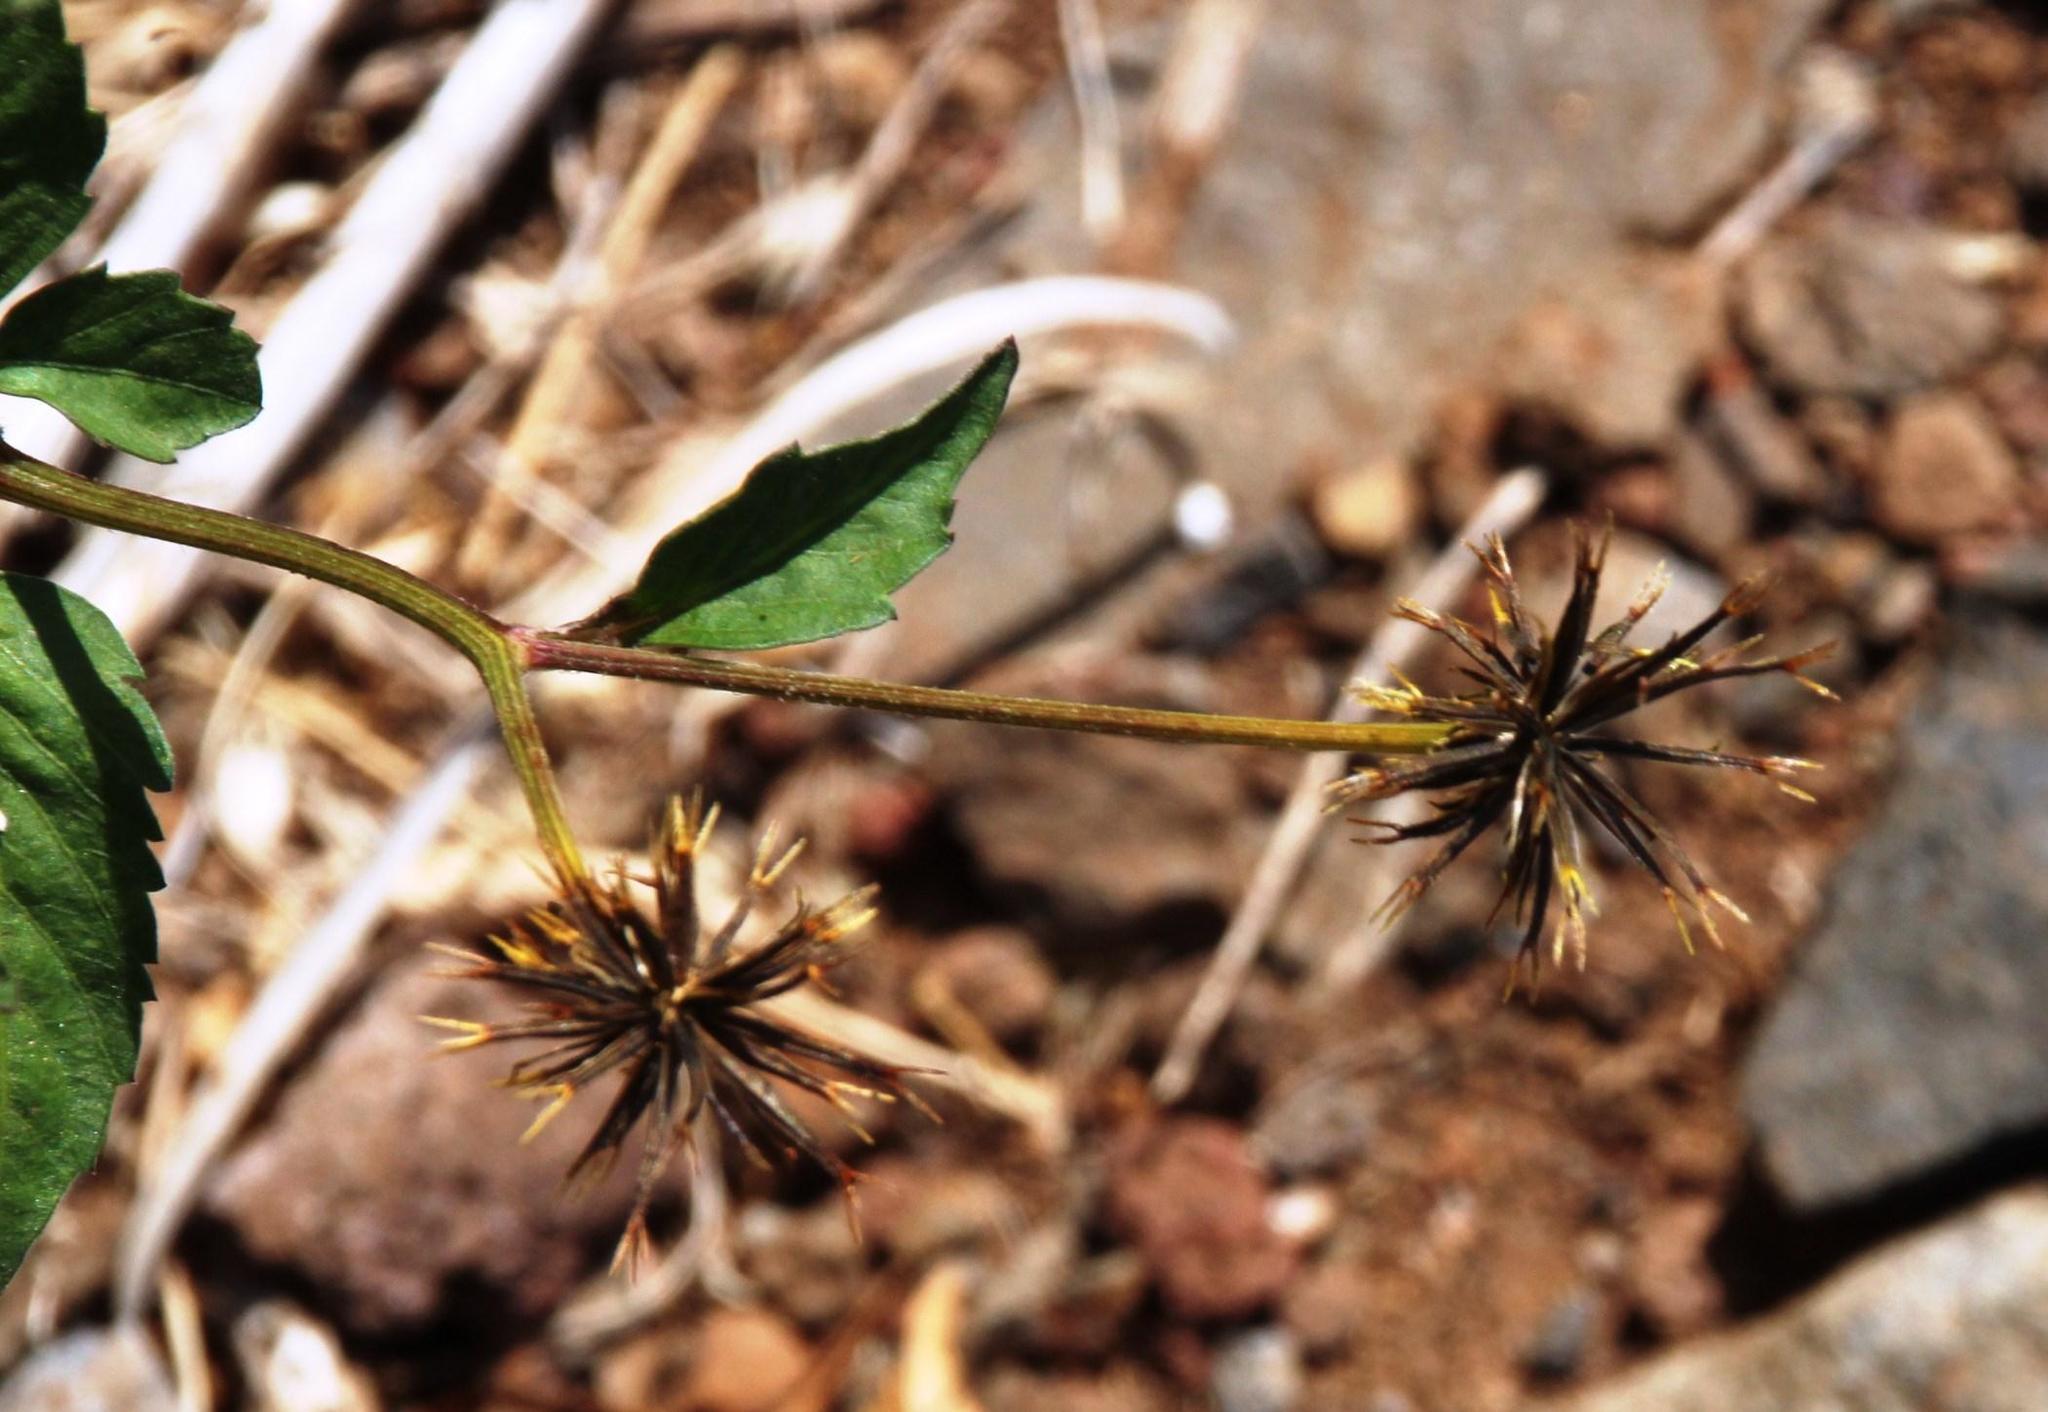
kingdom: Plantae
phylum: Tracheophyta
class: Magnoliopsida
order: Asterales
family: Asteraceae
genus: Bidens
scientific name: Bidens pilosa
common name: Black-jack
